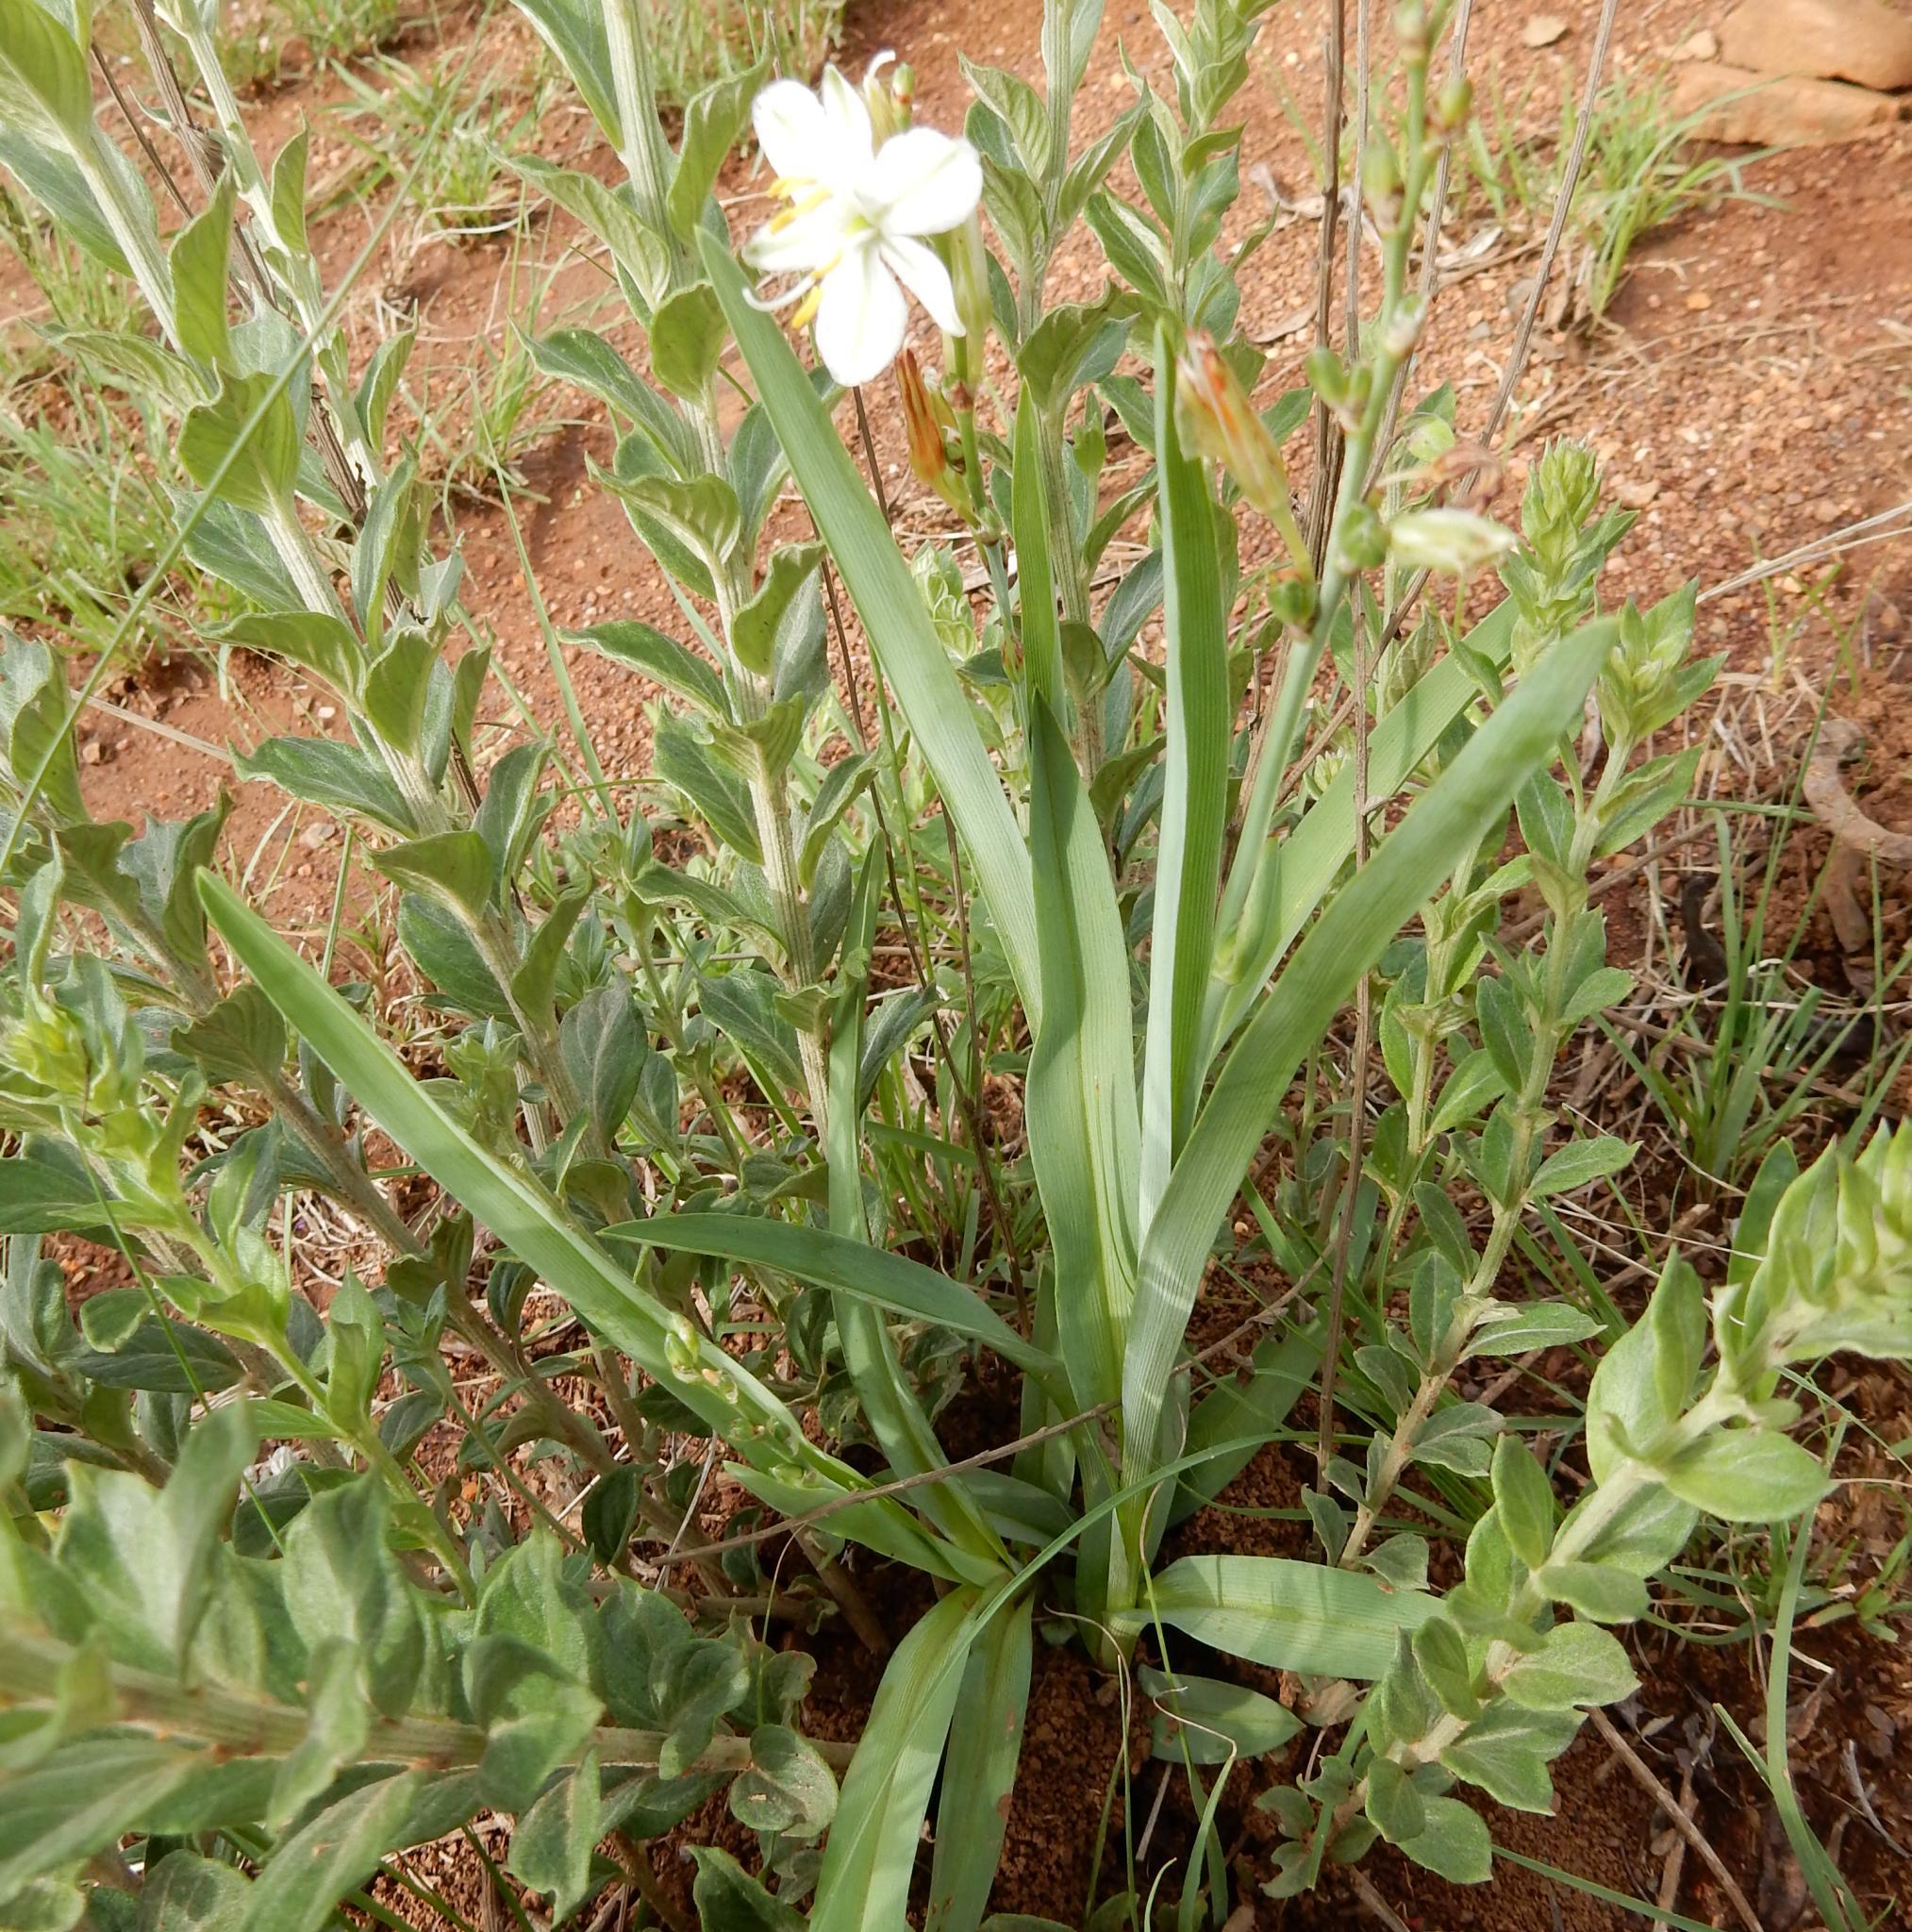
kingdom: Plantae
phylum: Tracheophyta
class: Liliopsida
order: Asparagales
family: Asparagaceae
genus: Chlorophytum
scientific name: Chlorophytum trichophlebium
